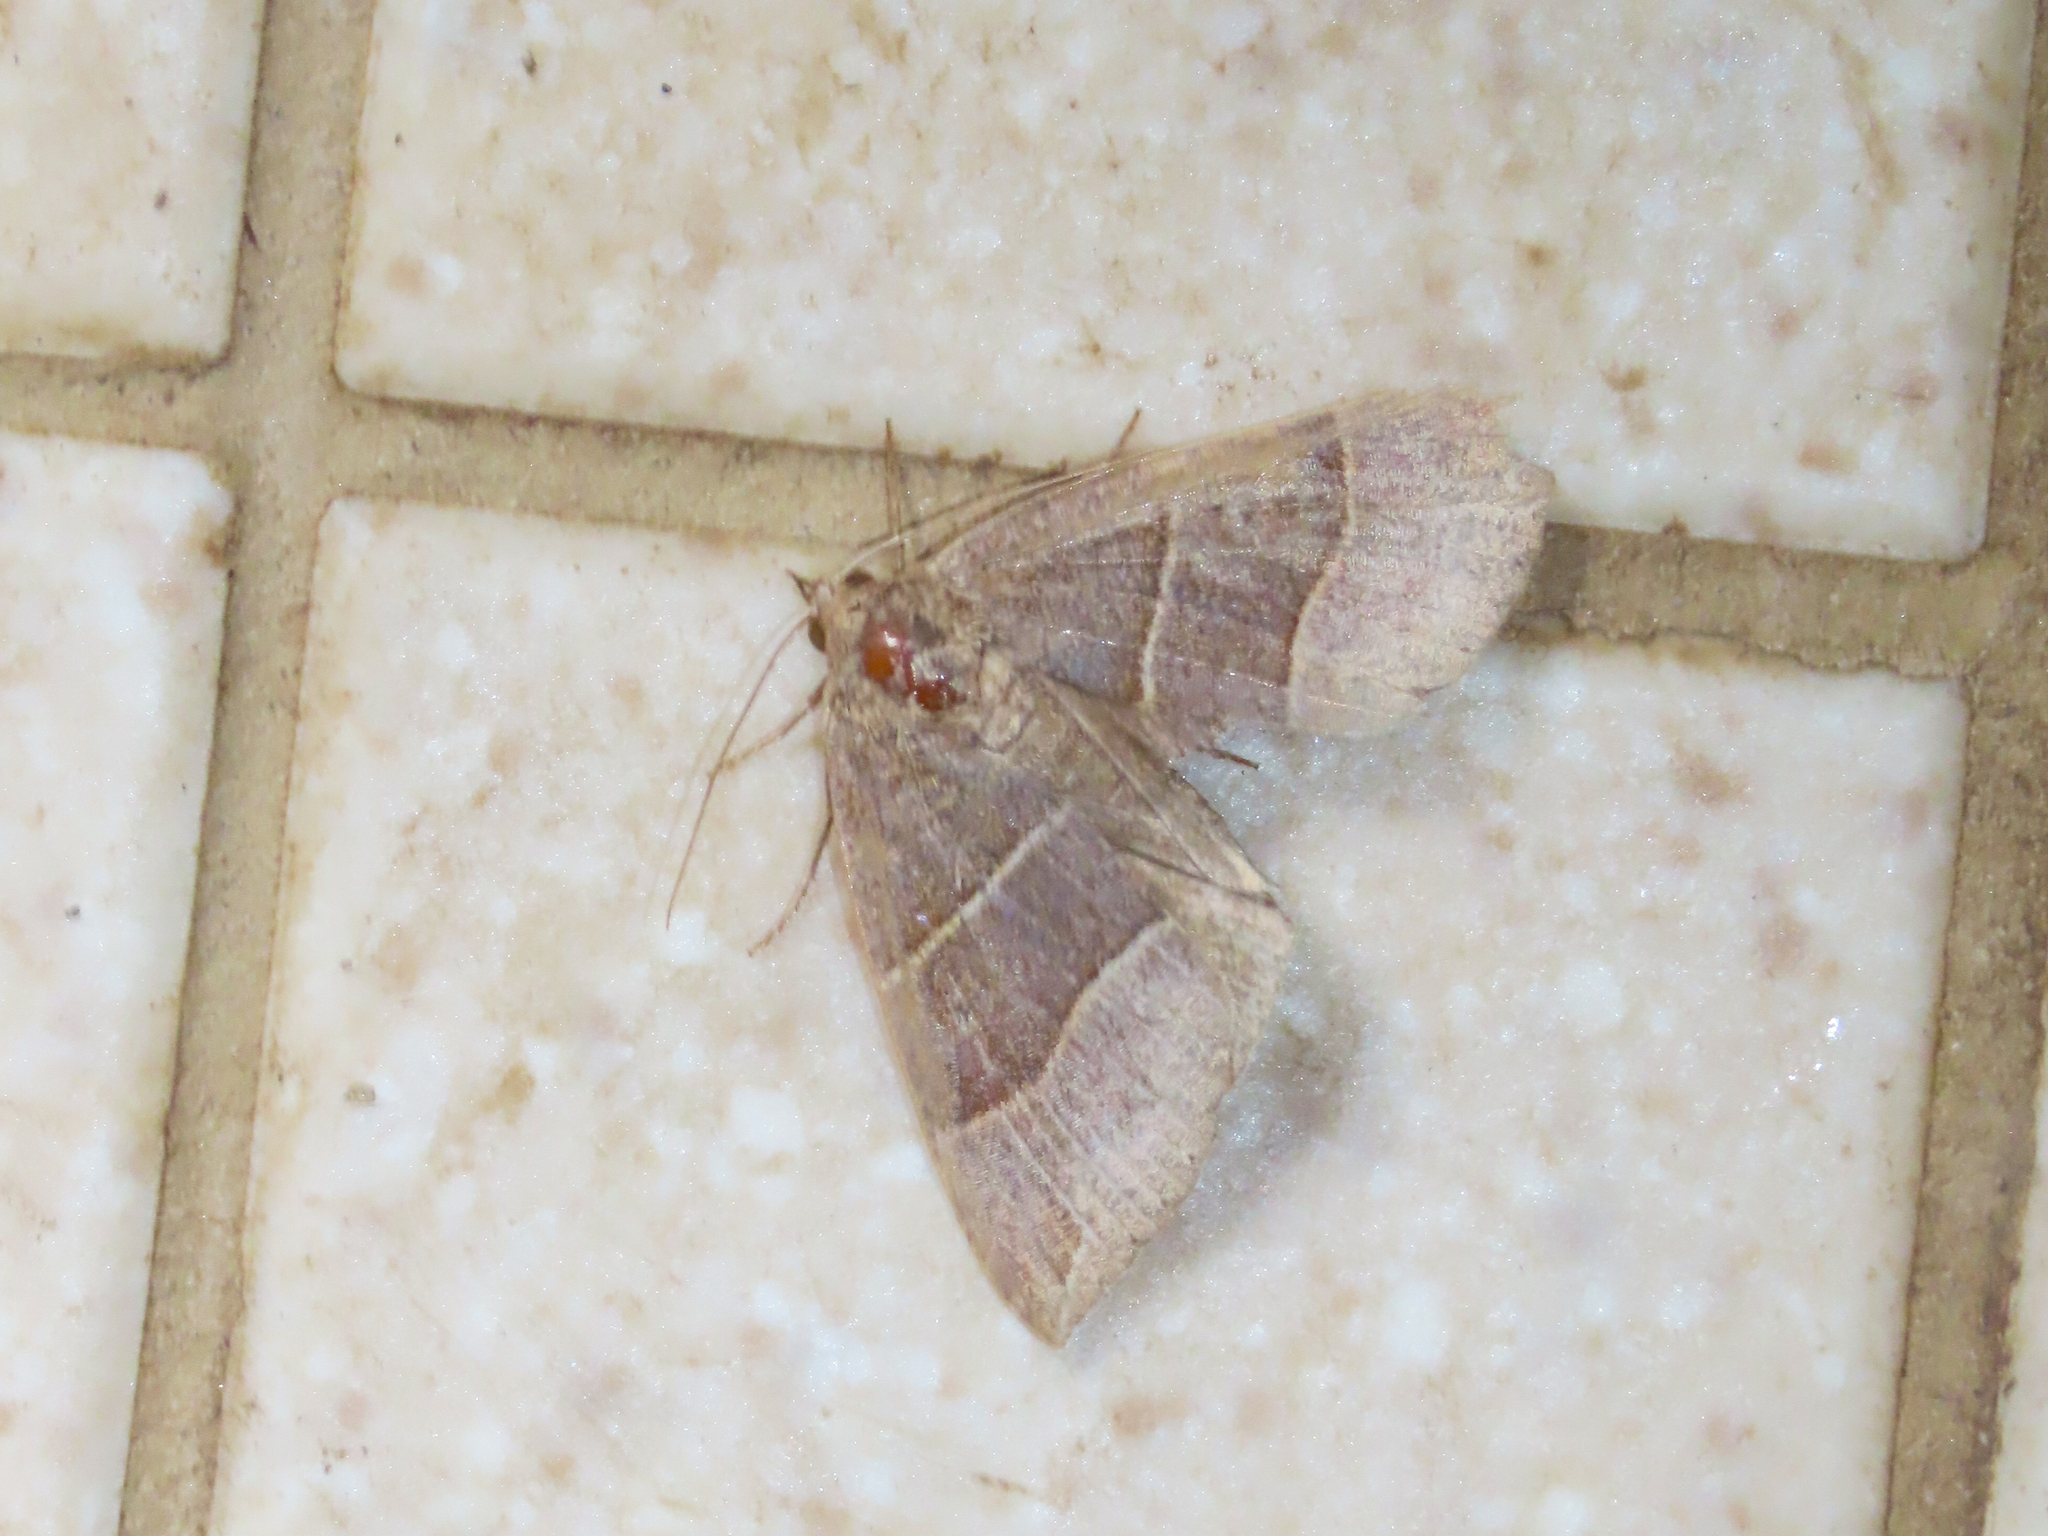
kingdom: Animalia
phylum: Arthropoda
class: Insecta
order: Lepidoptera
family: Erebidae
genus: Parallelia
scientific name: Parallelia bistriaris
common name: Maple looper moth
